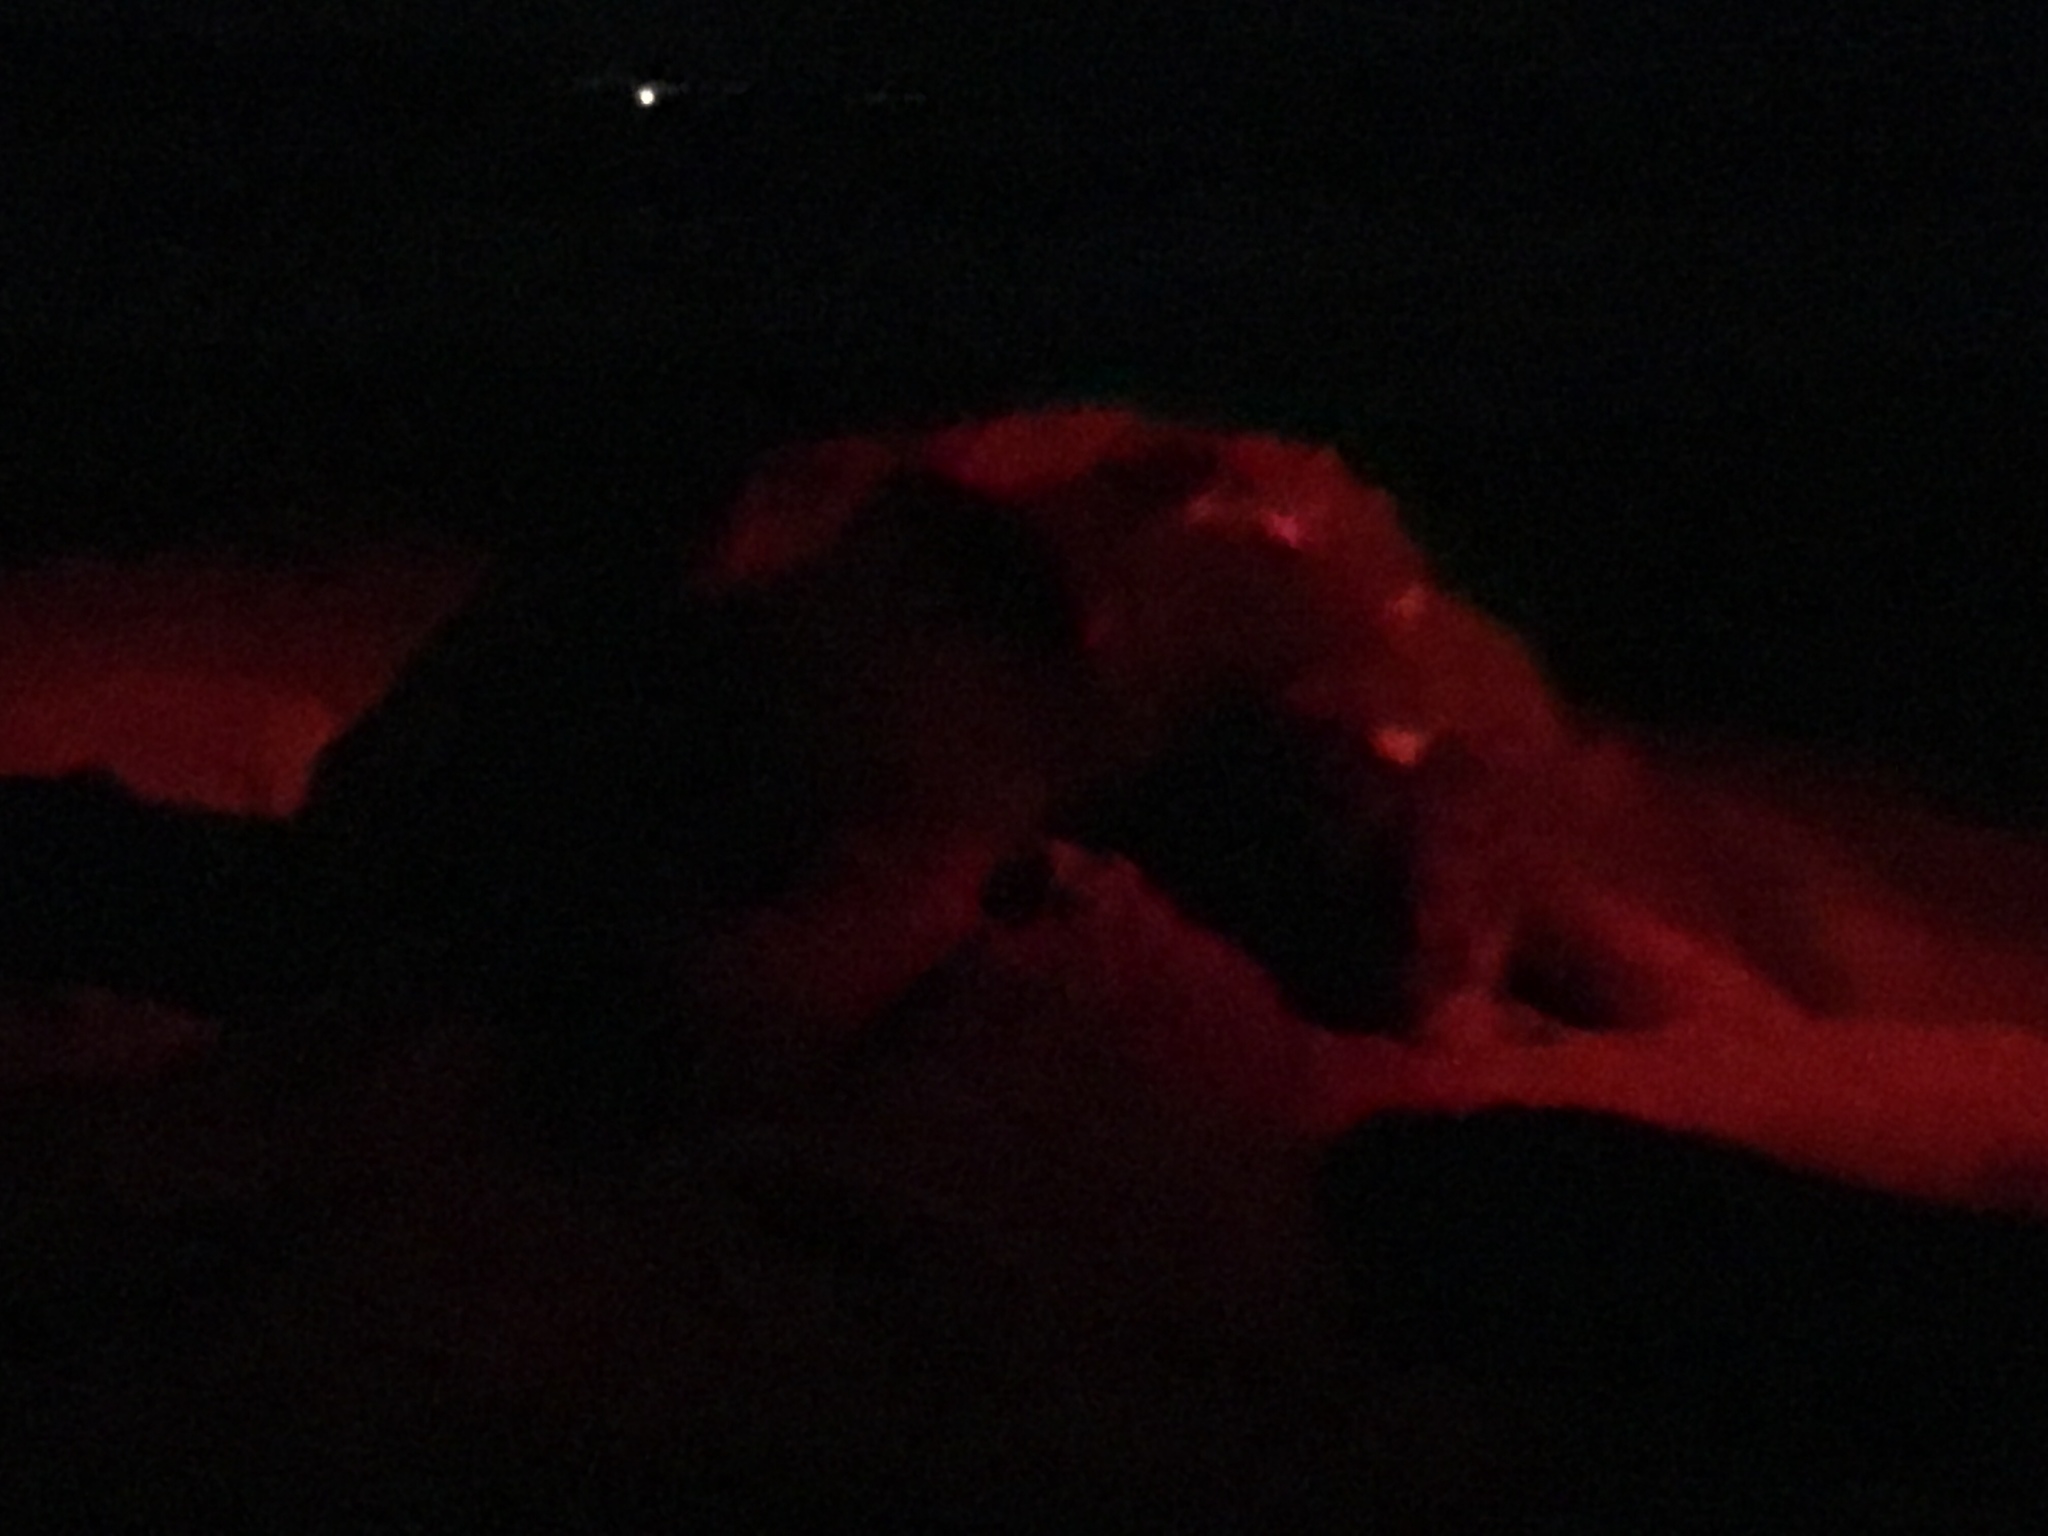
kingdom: Animalia
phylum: Chordata
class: Testudines
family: Dermochelyidae
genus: Dermochelys
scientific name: Dermochelys coriacea
